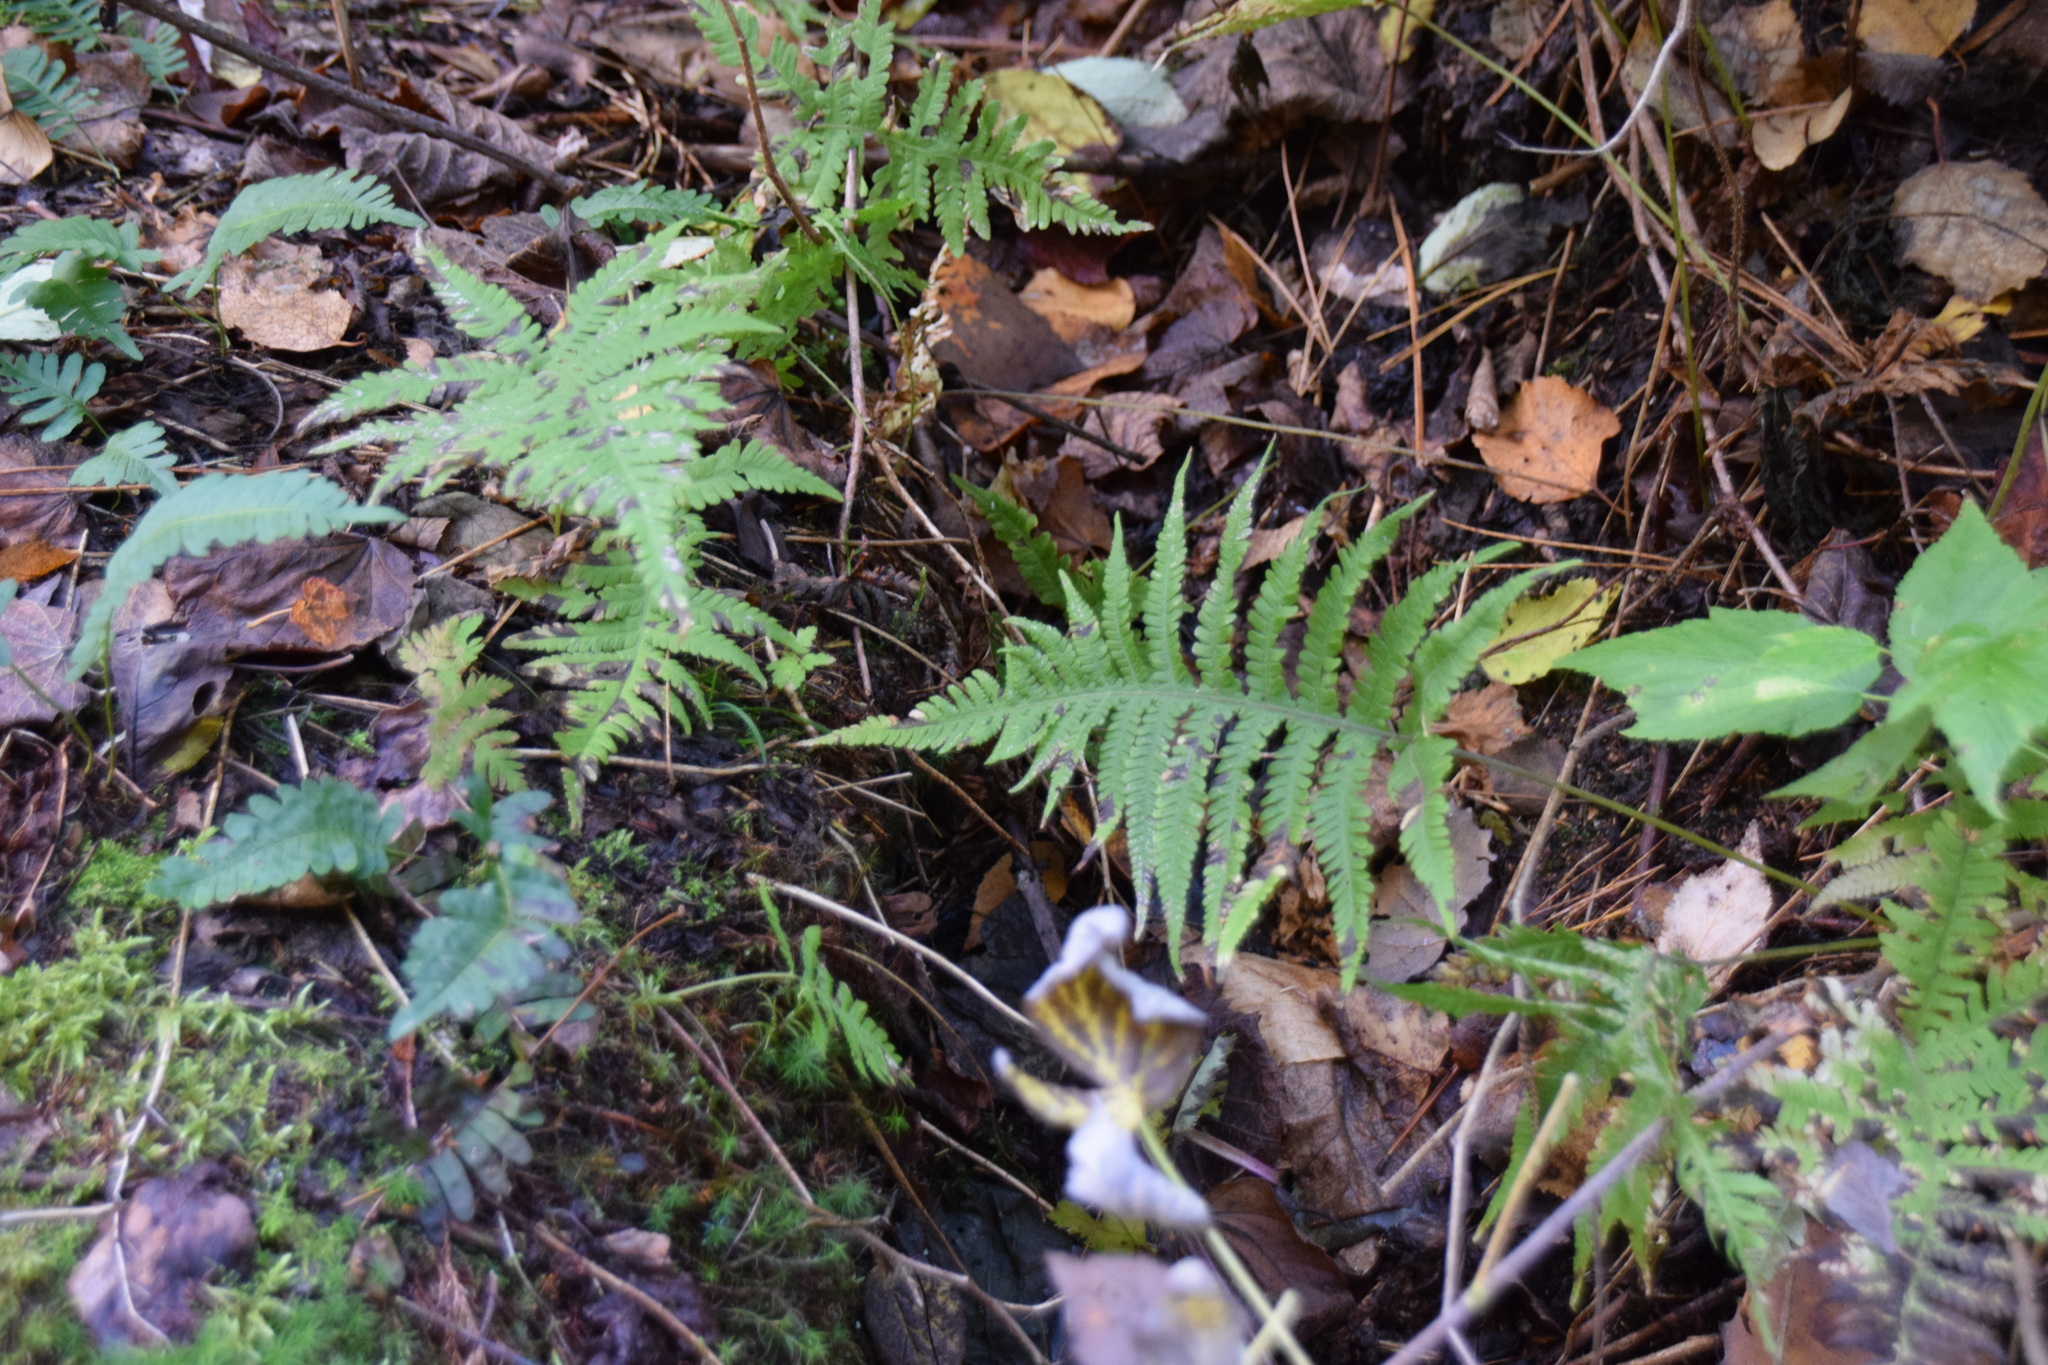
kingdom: Plantae
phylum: Tracheophyta
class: Polypodiopsida
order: Polypodiales
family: Thelypteridaceae
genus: Phegopteris
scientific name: Phegopteris connectilis
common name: Beech fern
